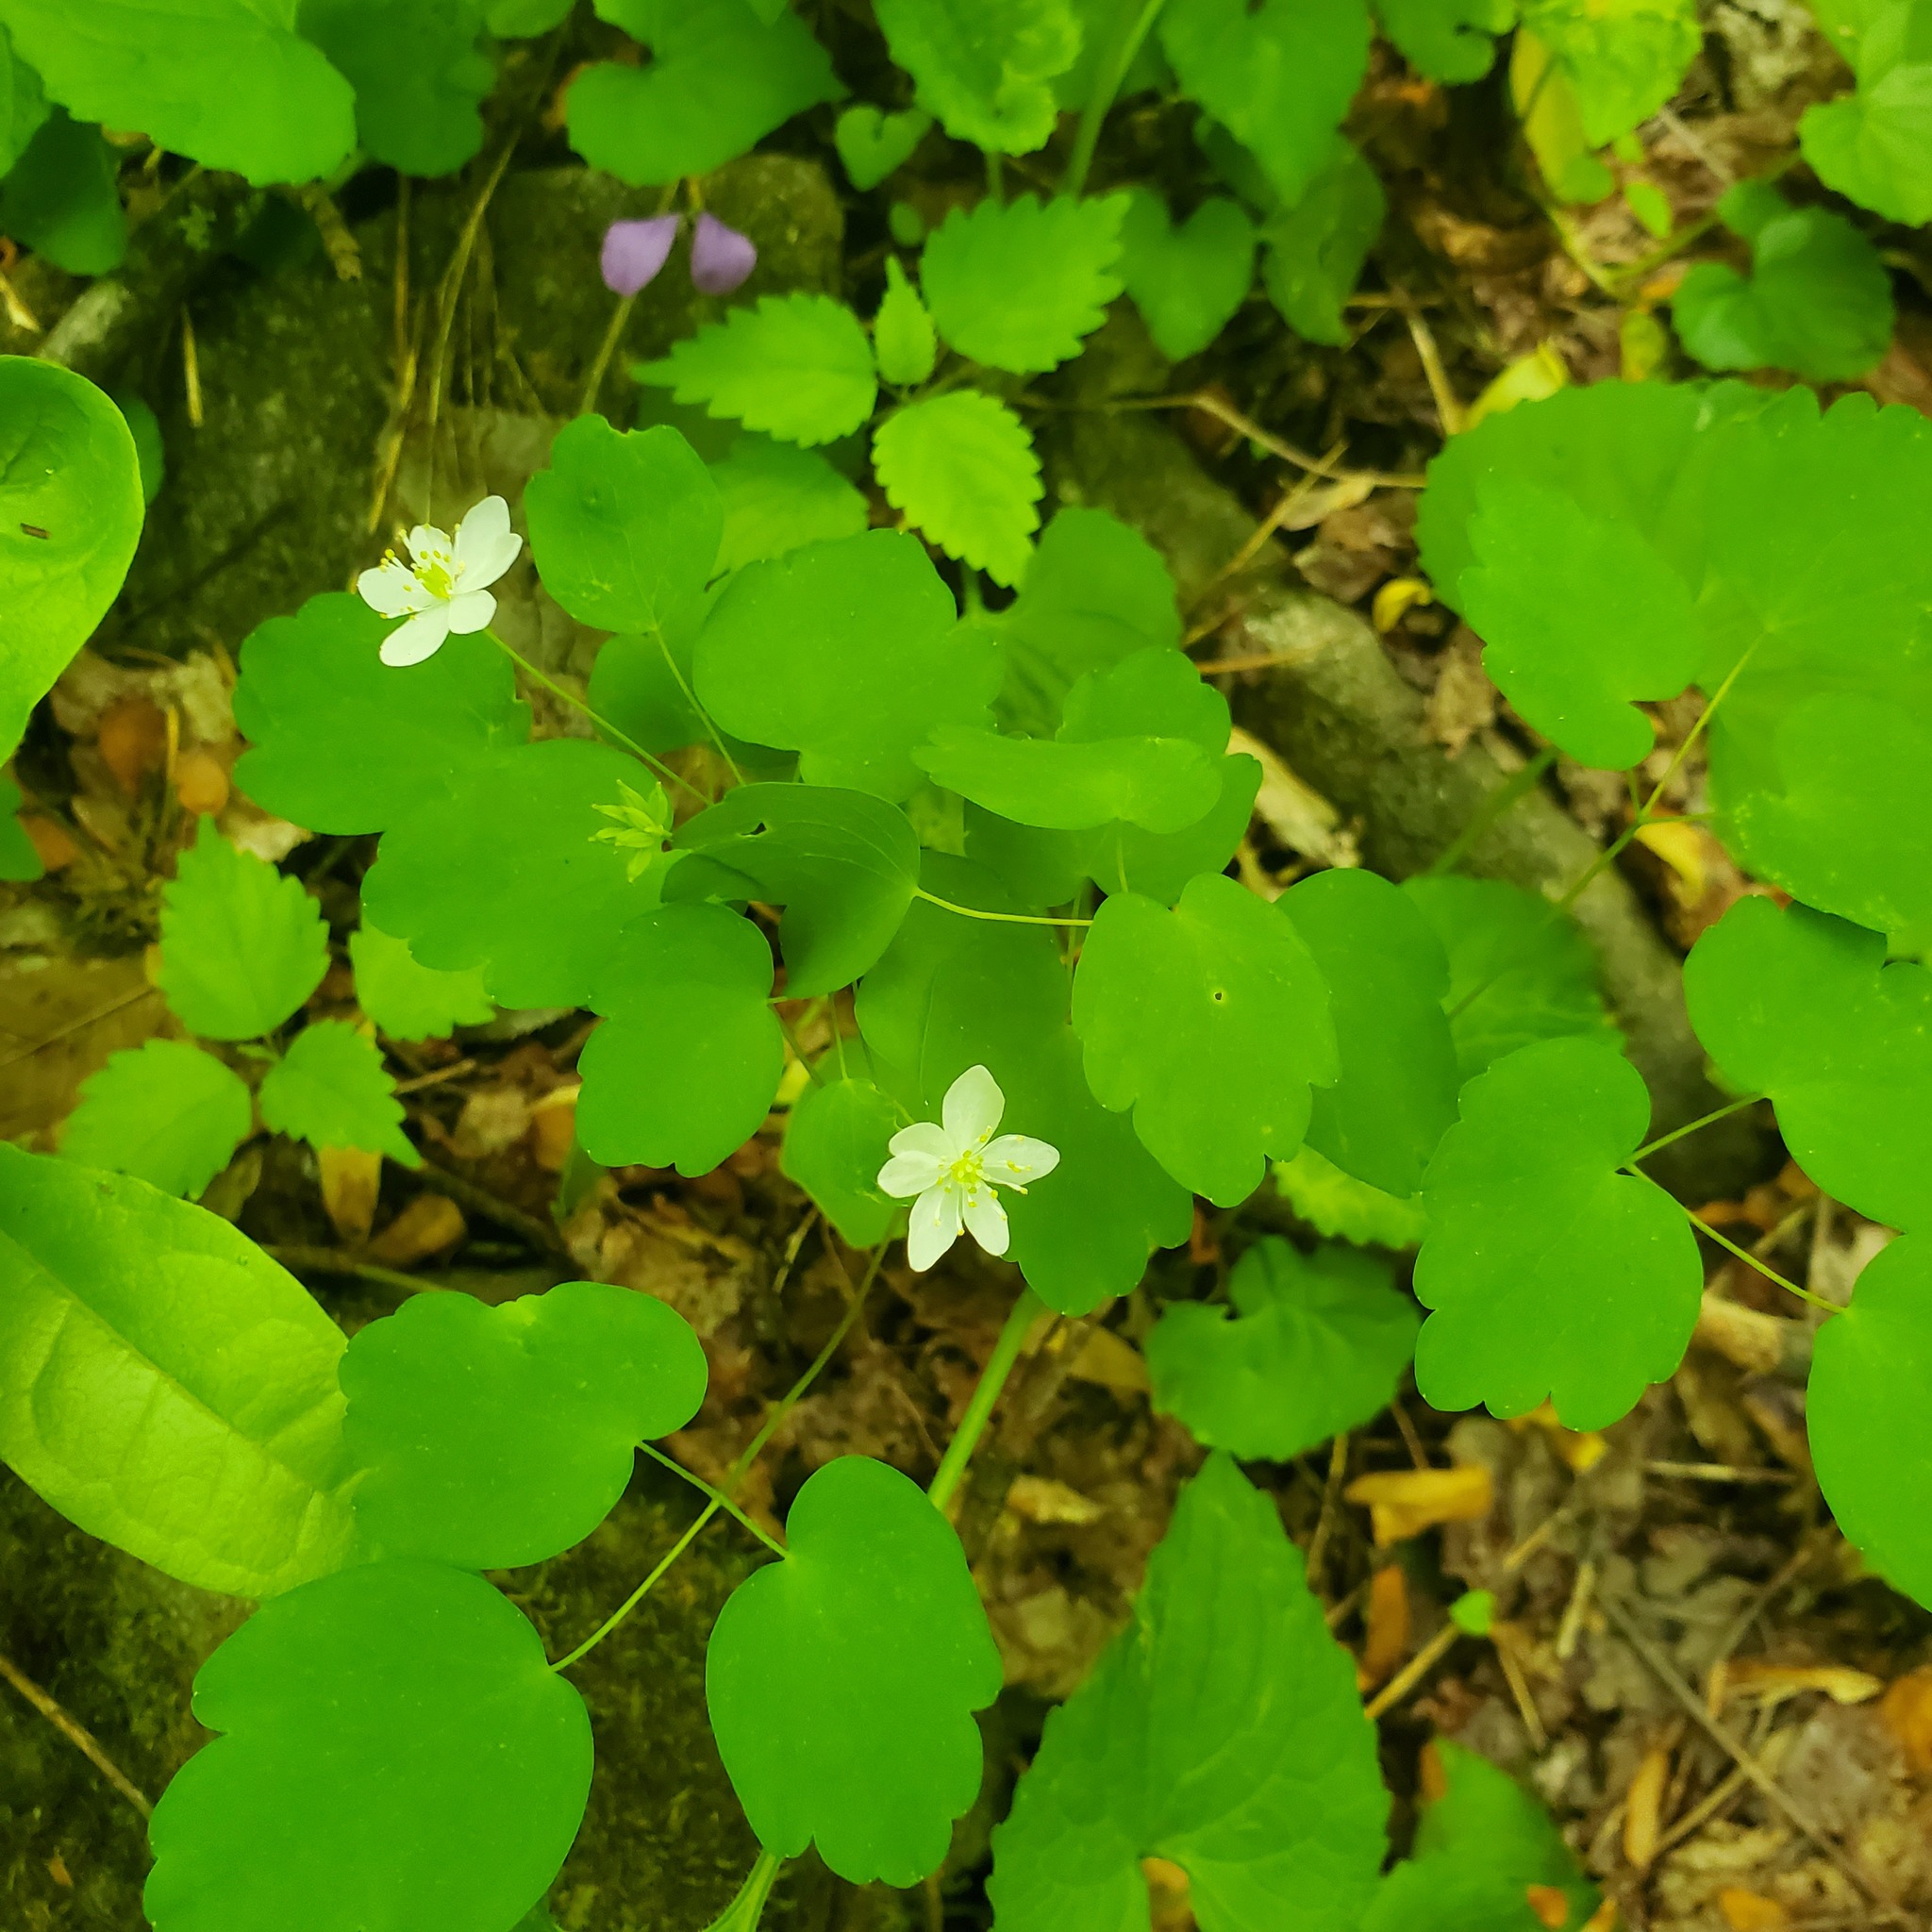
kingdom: Plantae
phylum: Tracheophyta
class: Magnoliopsida
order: Ranunculales
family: Ranunculaceae
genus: Thalictrum
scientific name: Thalictrum thalictroides
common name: Rue-anemone
